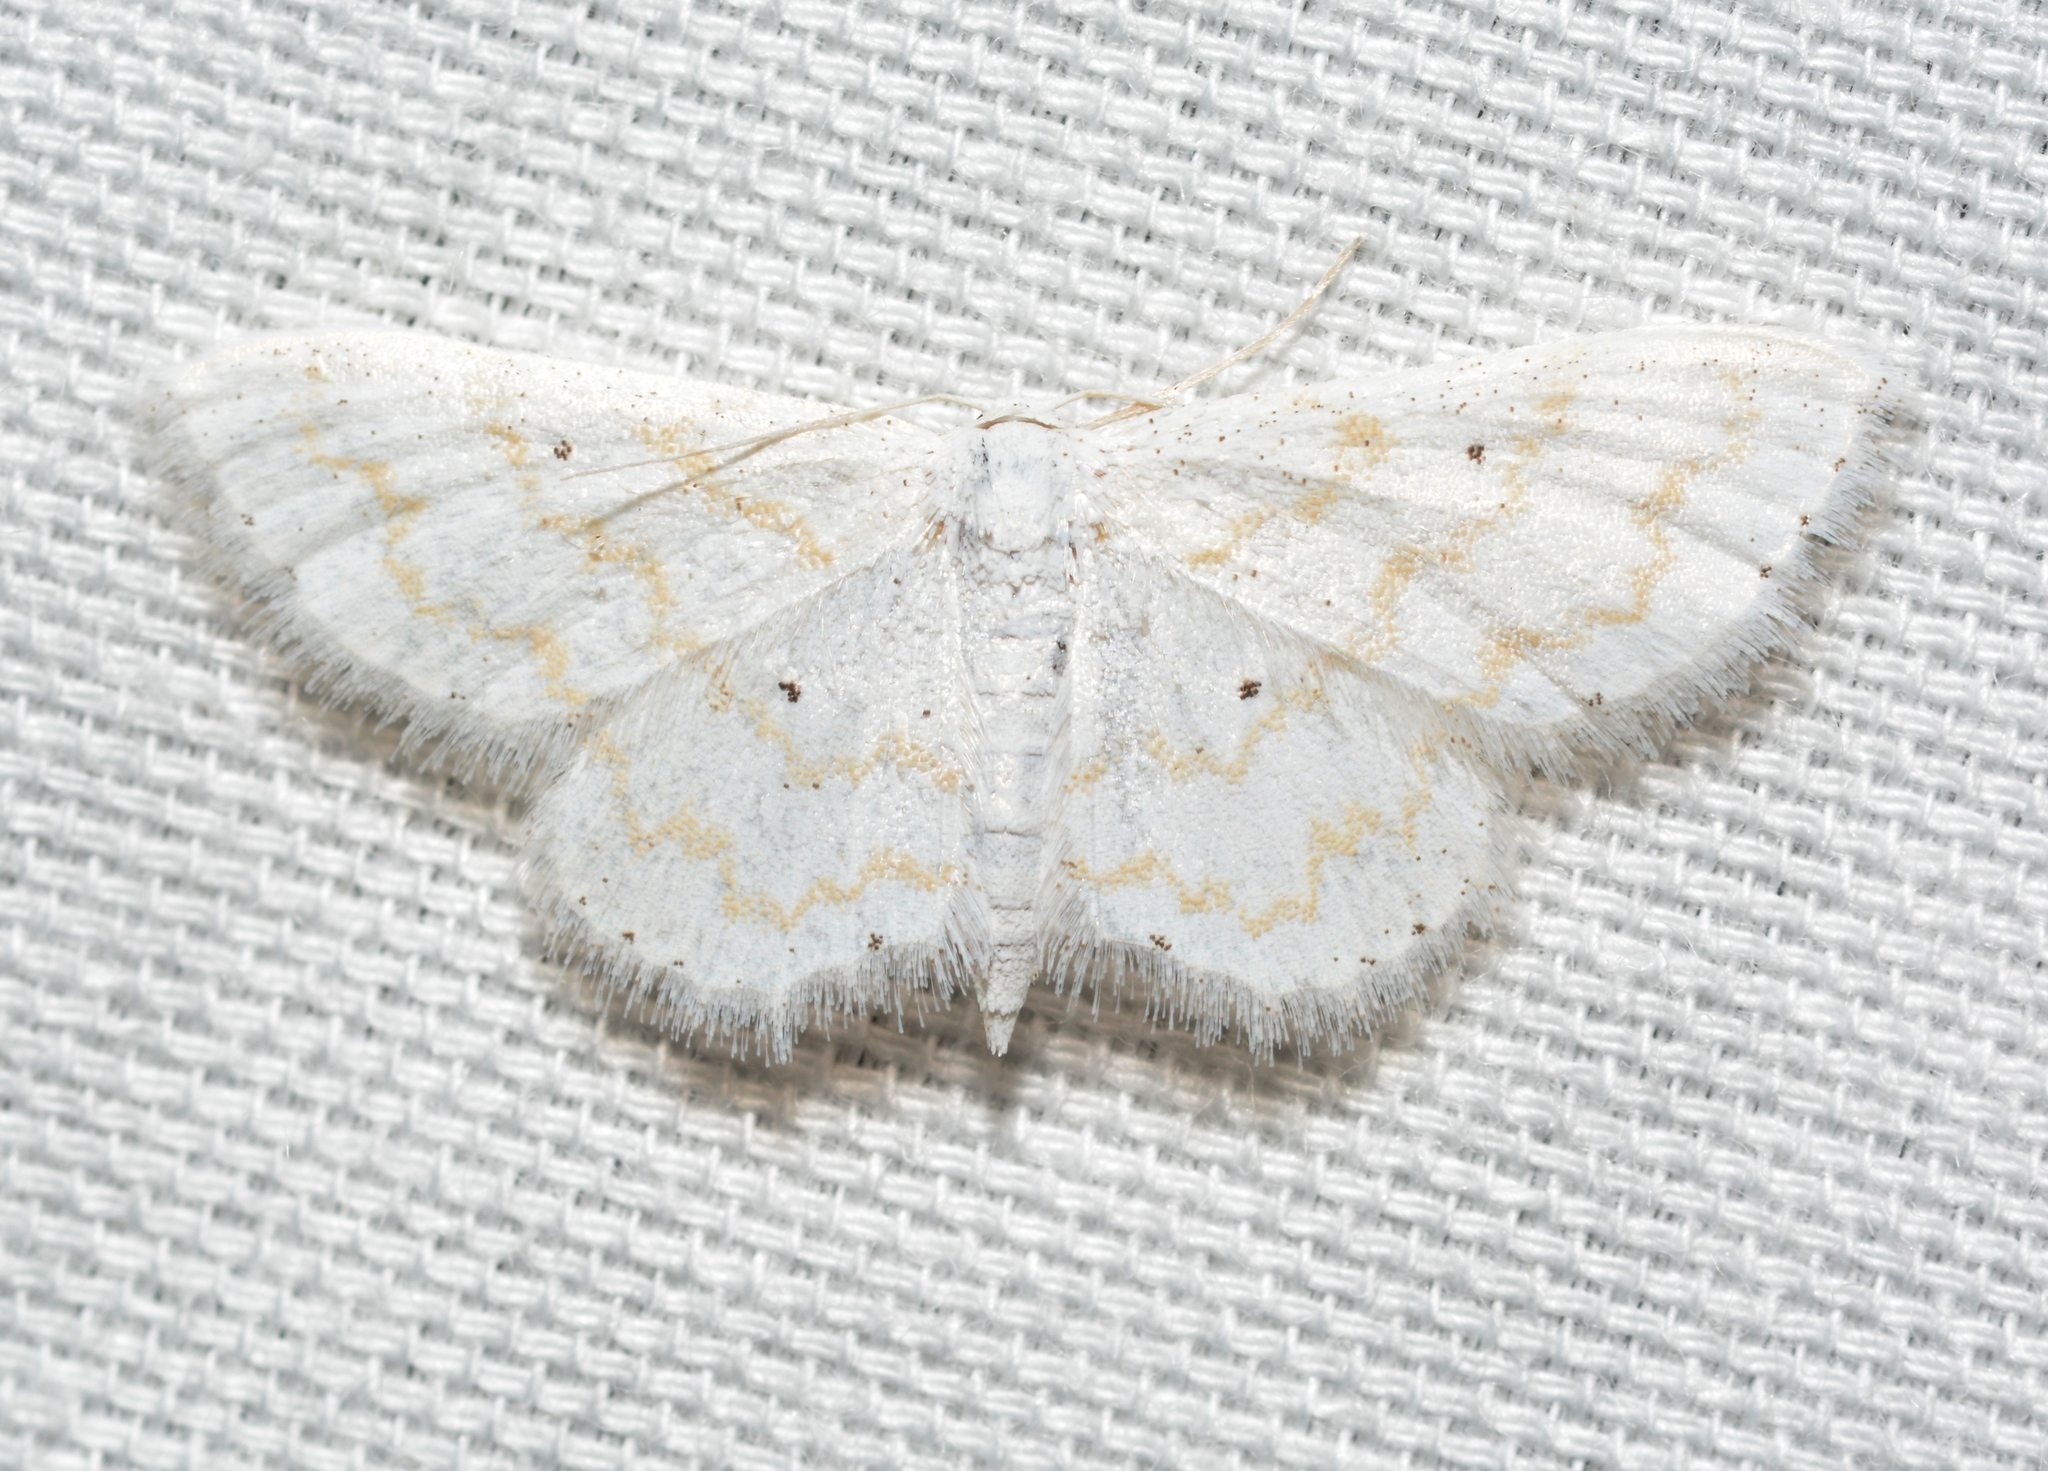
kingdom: Animalia
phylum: Arthropoda
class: Insecta
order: Lepidoptera
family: Geometridae
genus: Lobocleta
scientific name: Lobocleta peralbata
